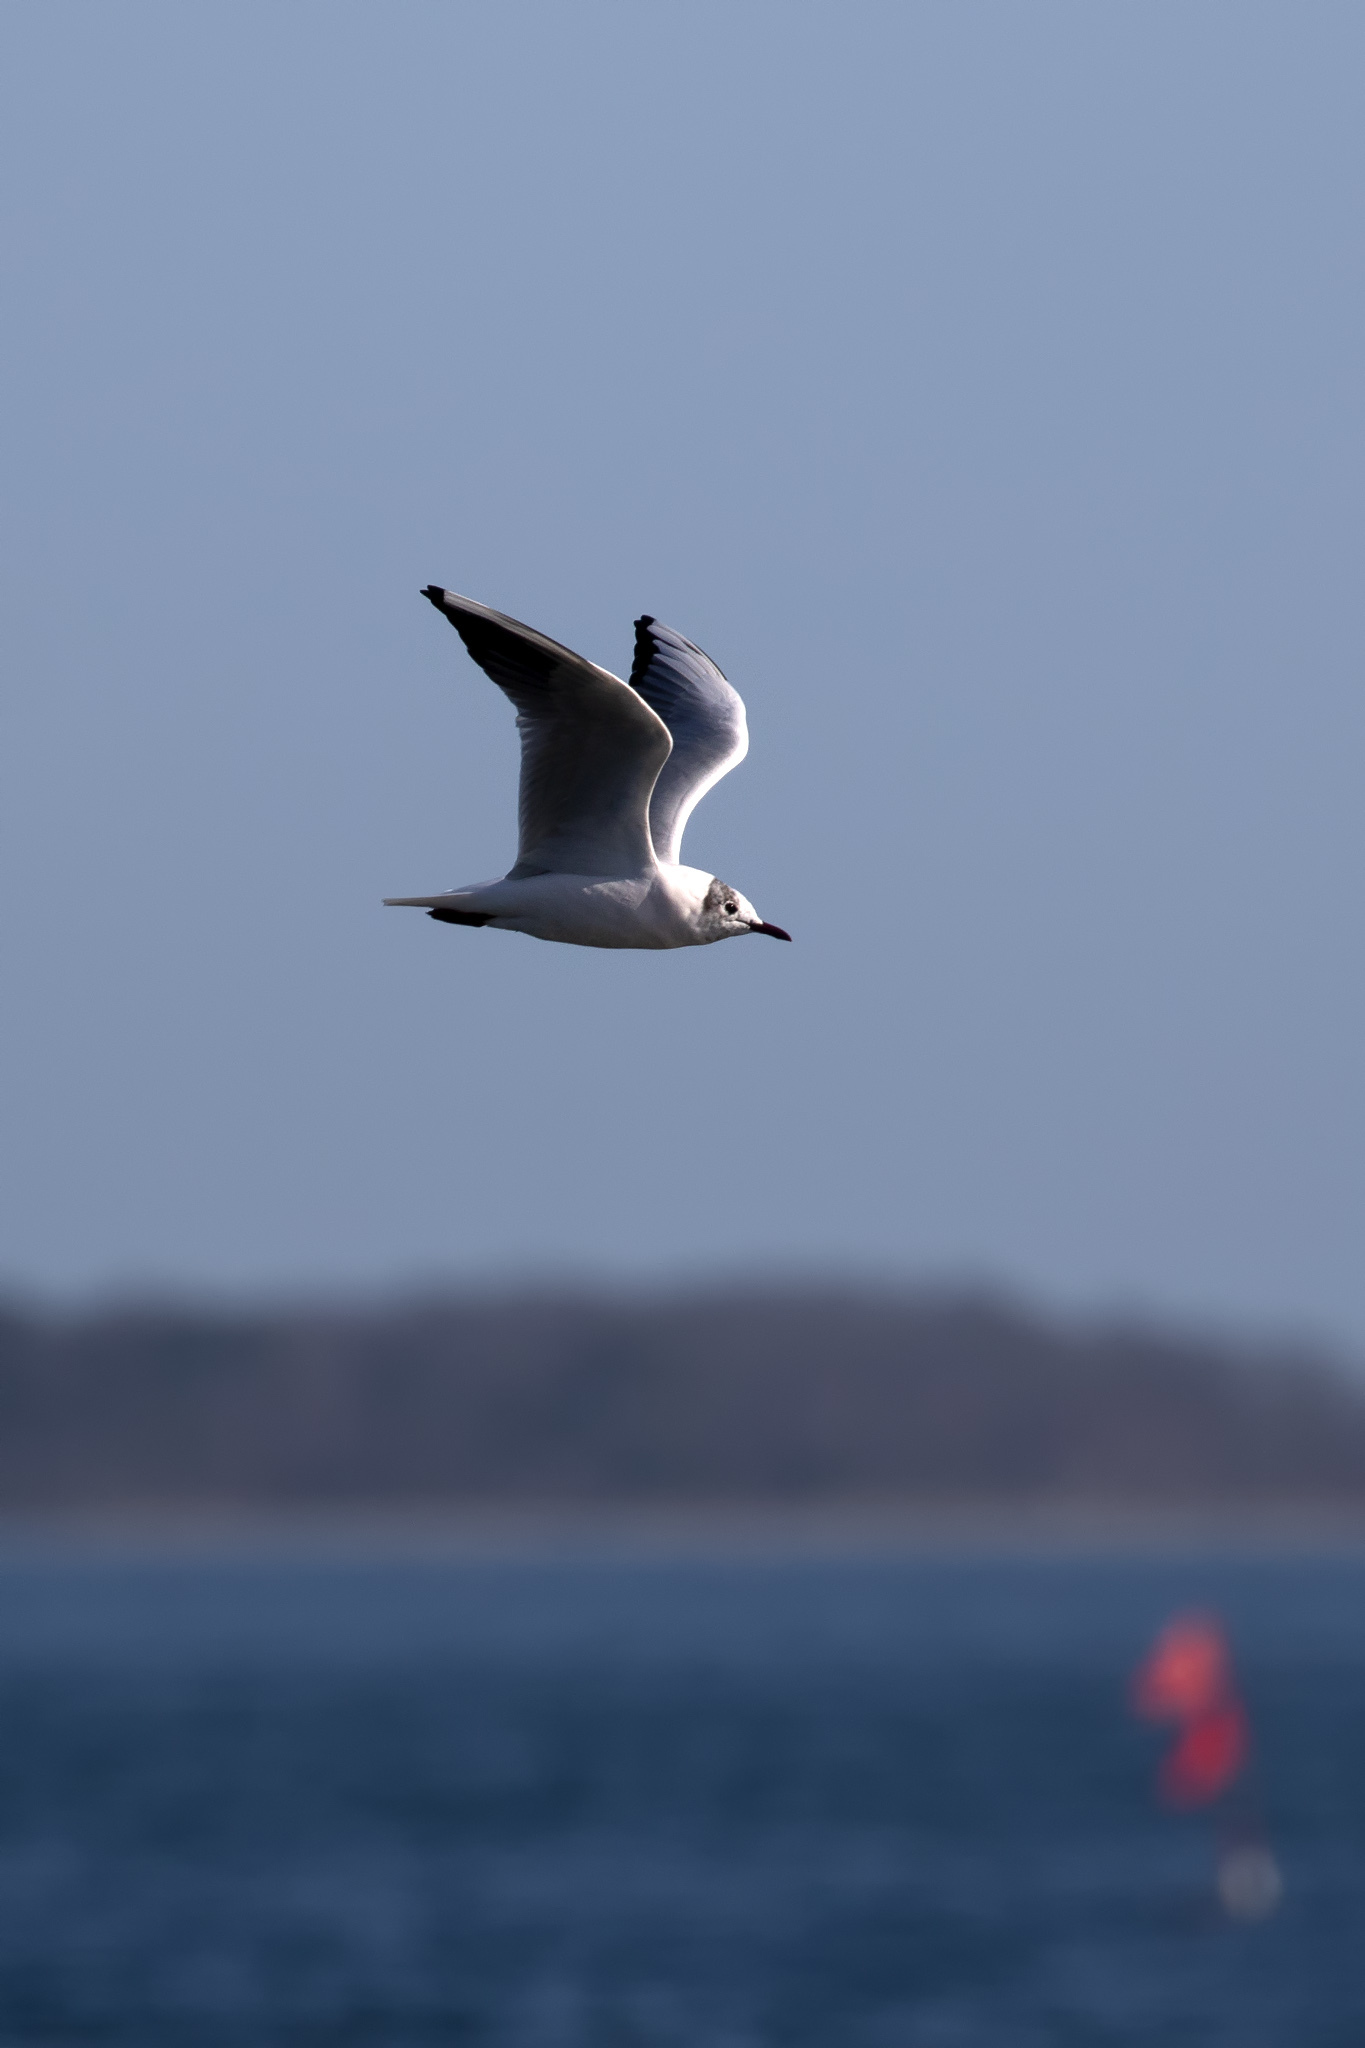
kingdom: Animalia
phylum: Chordata
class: Aves
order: Charadriiformes
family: Laridae
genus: Chroicocephalus
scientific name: Chroicocephalus ridibundus
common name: Black-headed gull
